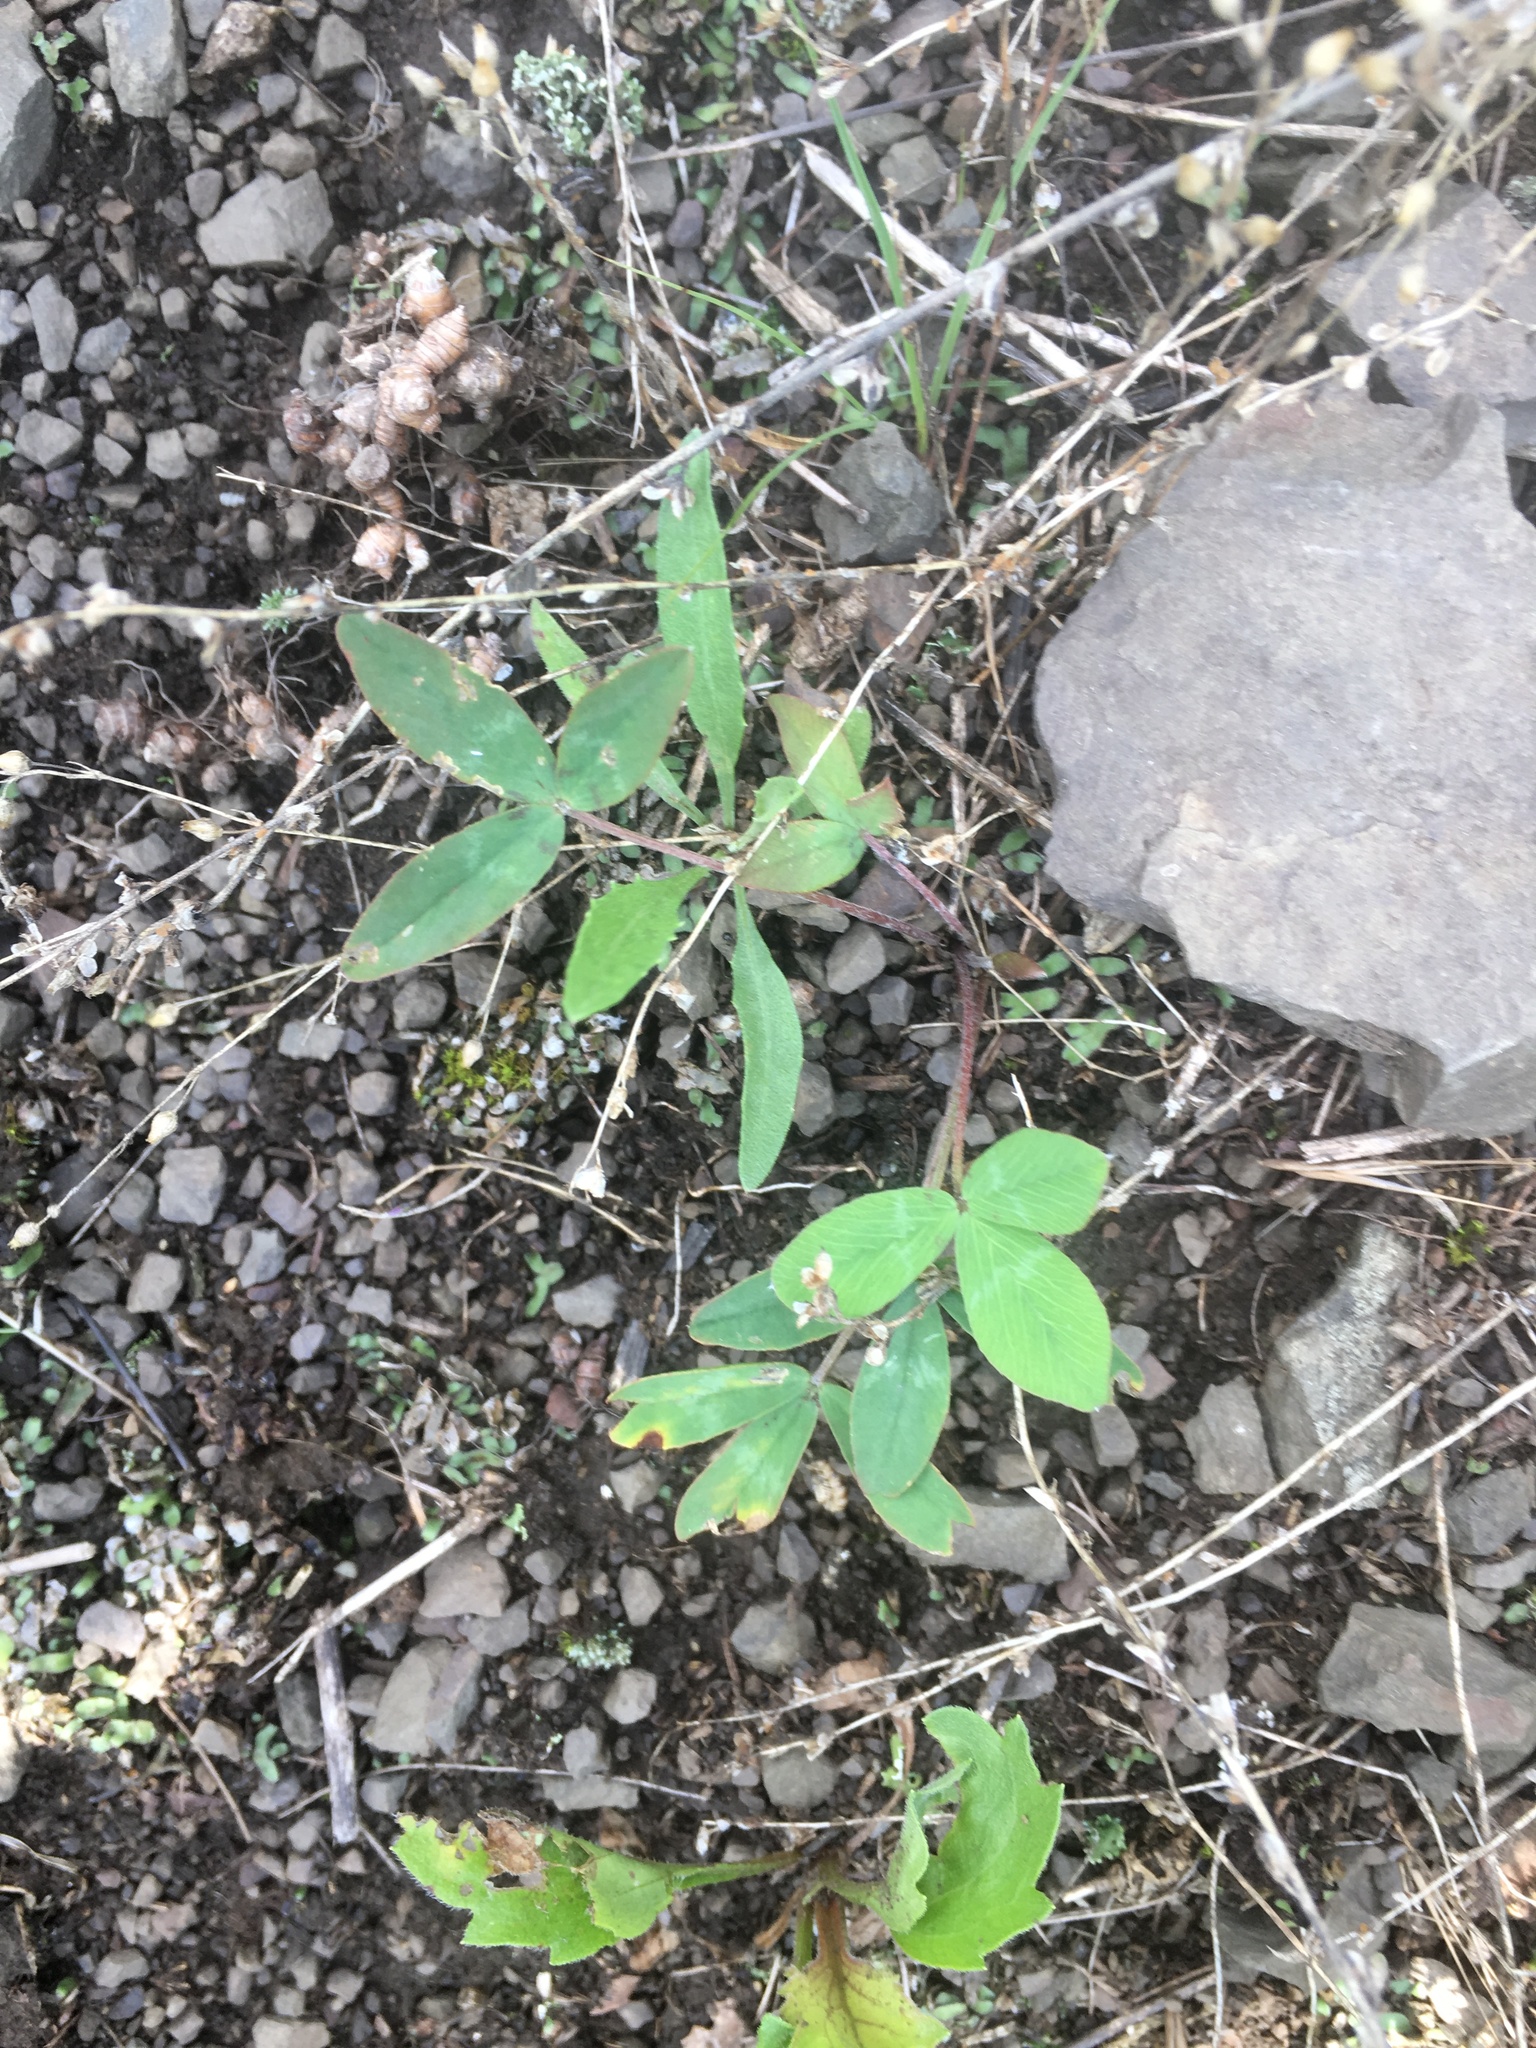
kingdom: Plantae
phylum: Tracheophyta
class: Magnoliopsida
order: Fabales
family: Fabaceae
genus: Trifolium
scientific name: Trifolium virginicum
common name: Kate's mountain clover
